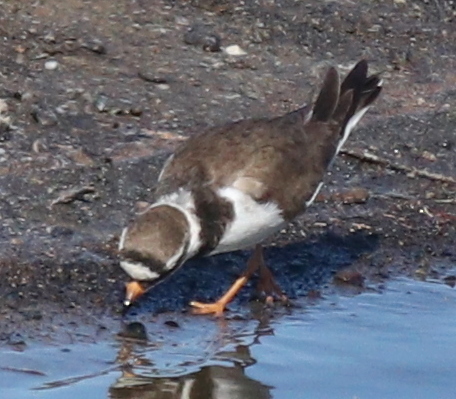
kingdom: Animalia
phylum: Chordata
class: Aves
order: Charadriiformes
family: Charadriidae
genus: Charadrius
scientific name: Charadrius hiaticula
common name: Common ringed plover
